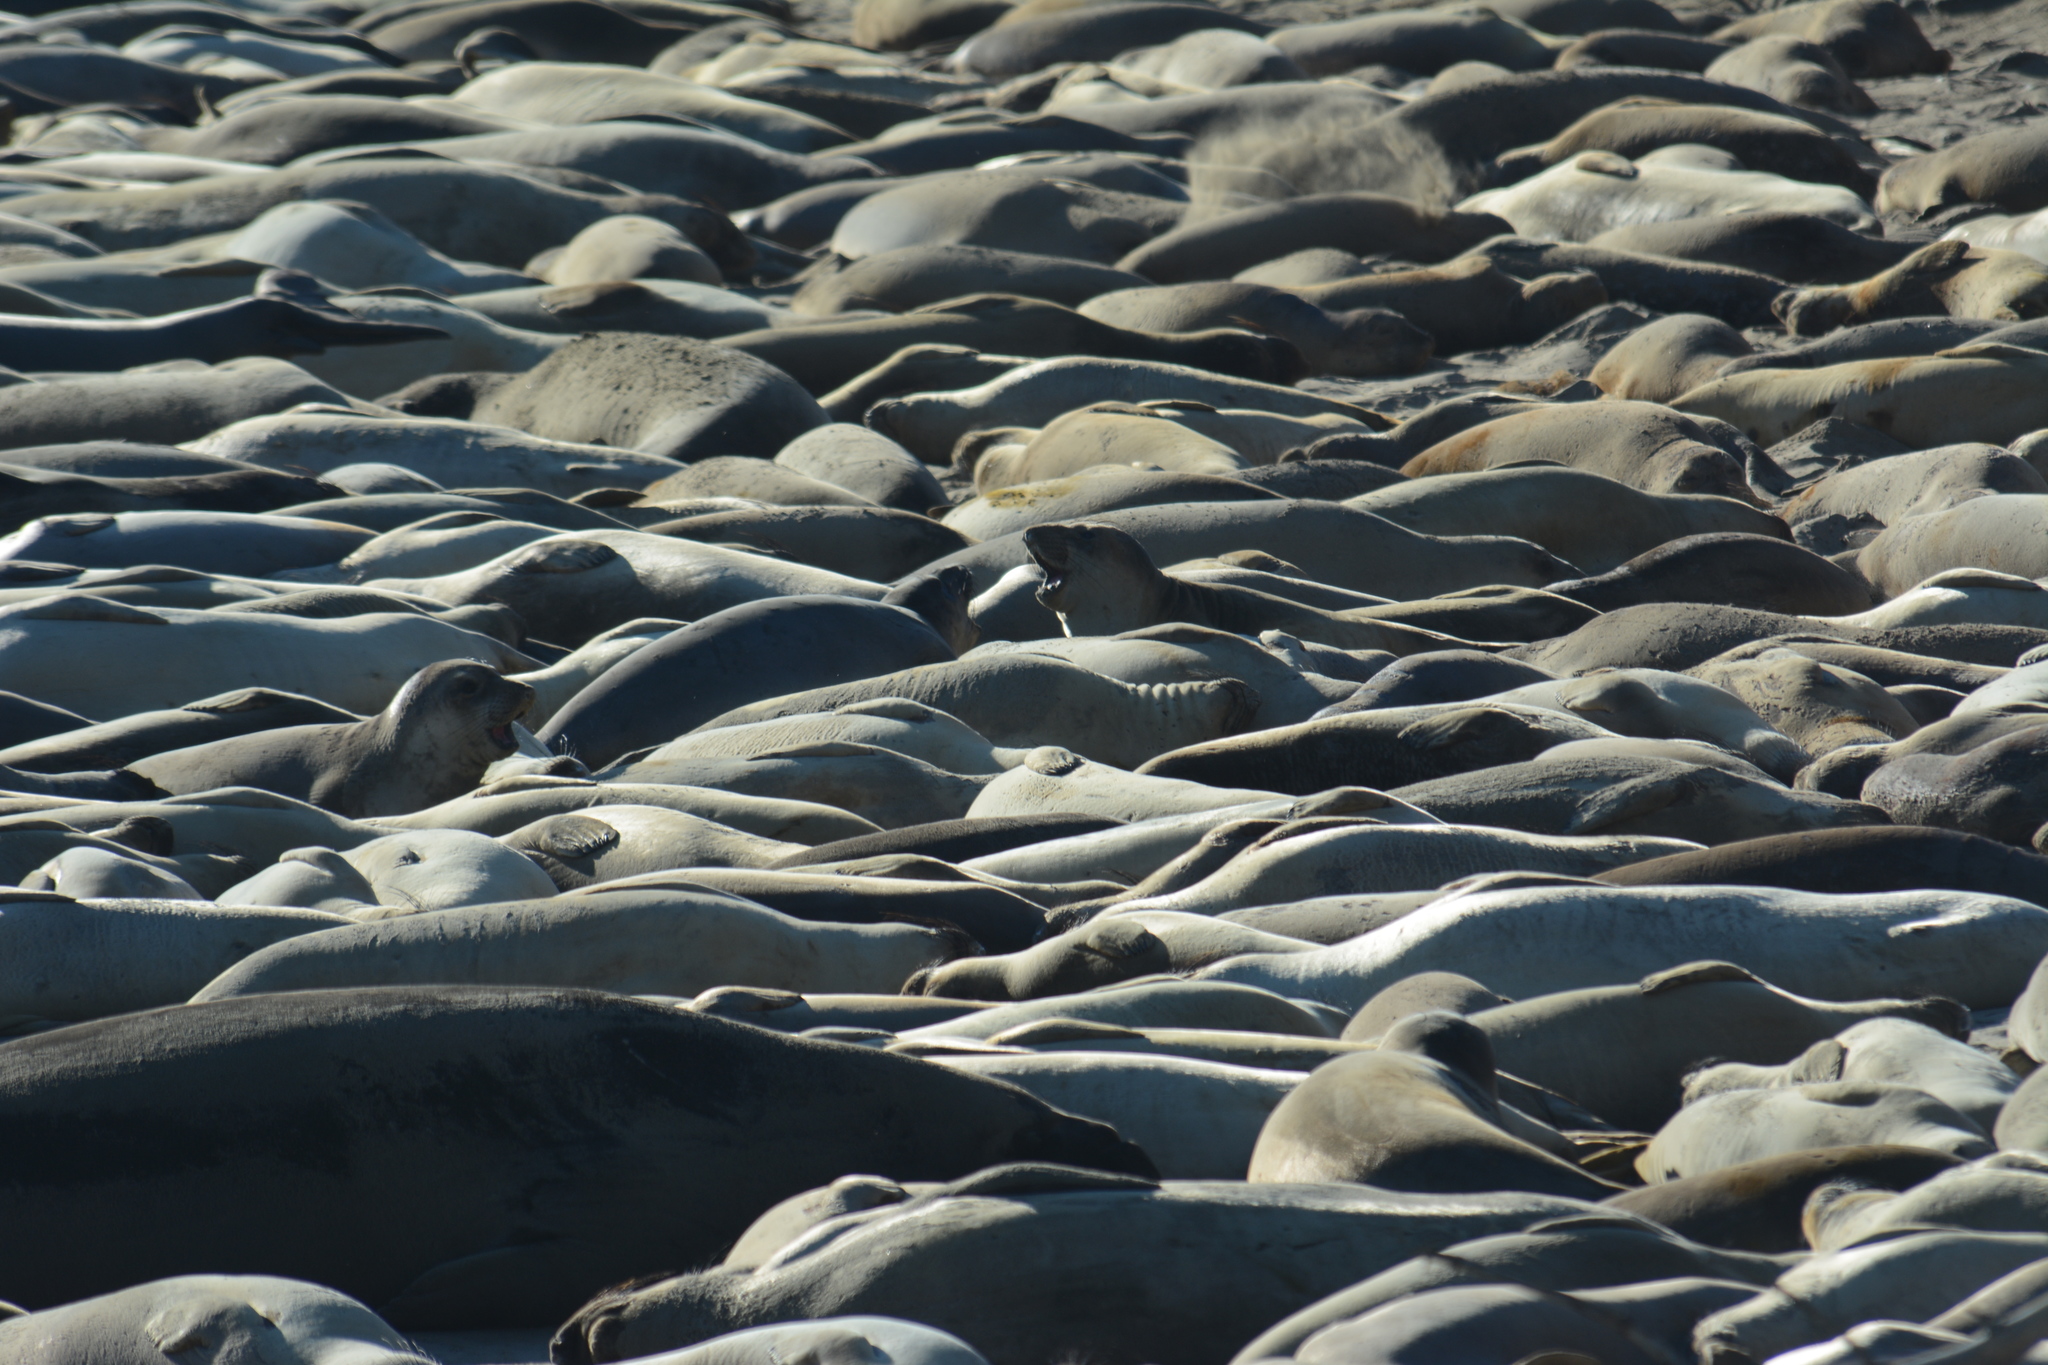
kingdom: Animalia
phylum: Chordata
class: Mammalia
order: Carnivora
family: Phocidae
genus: Mirounga
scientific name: Mirounga angustirostris
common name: Northern elephant seal
